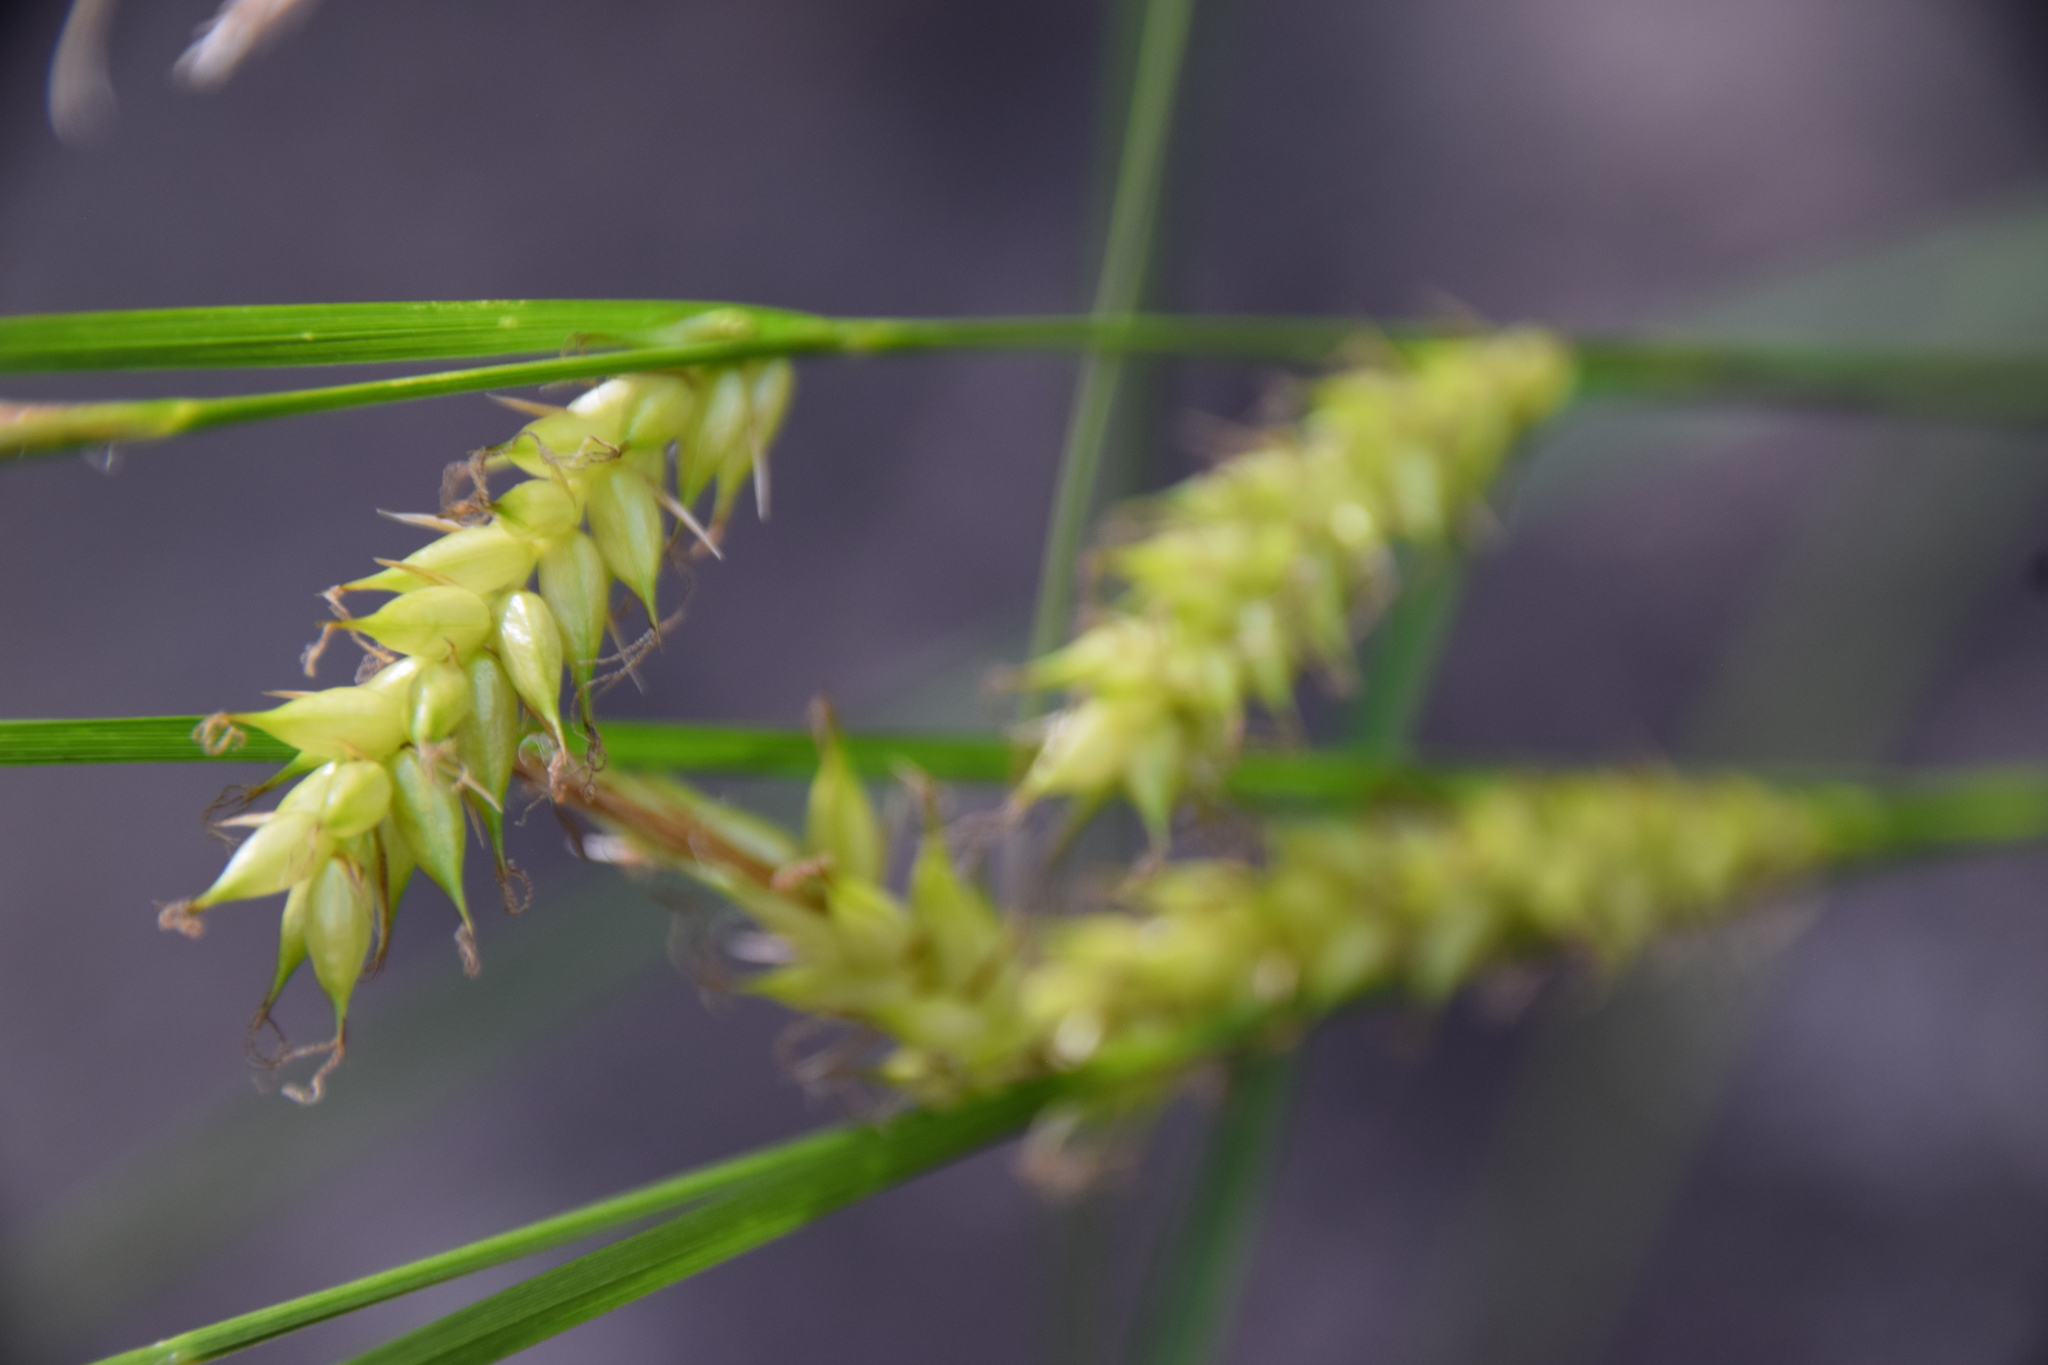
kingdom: Plantae
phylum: Tracheophyta
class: Liliopsida
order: Poales
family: Cyperaceae
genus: Carex
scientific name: Carex vesicaria
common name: Bladder-sedge
